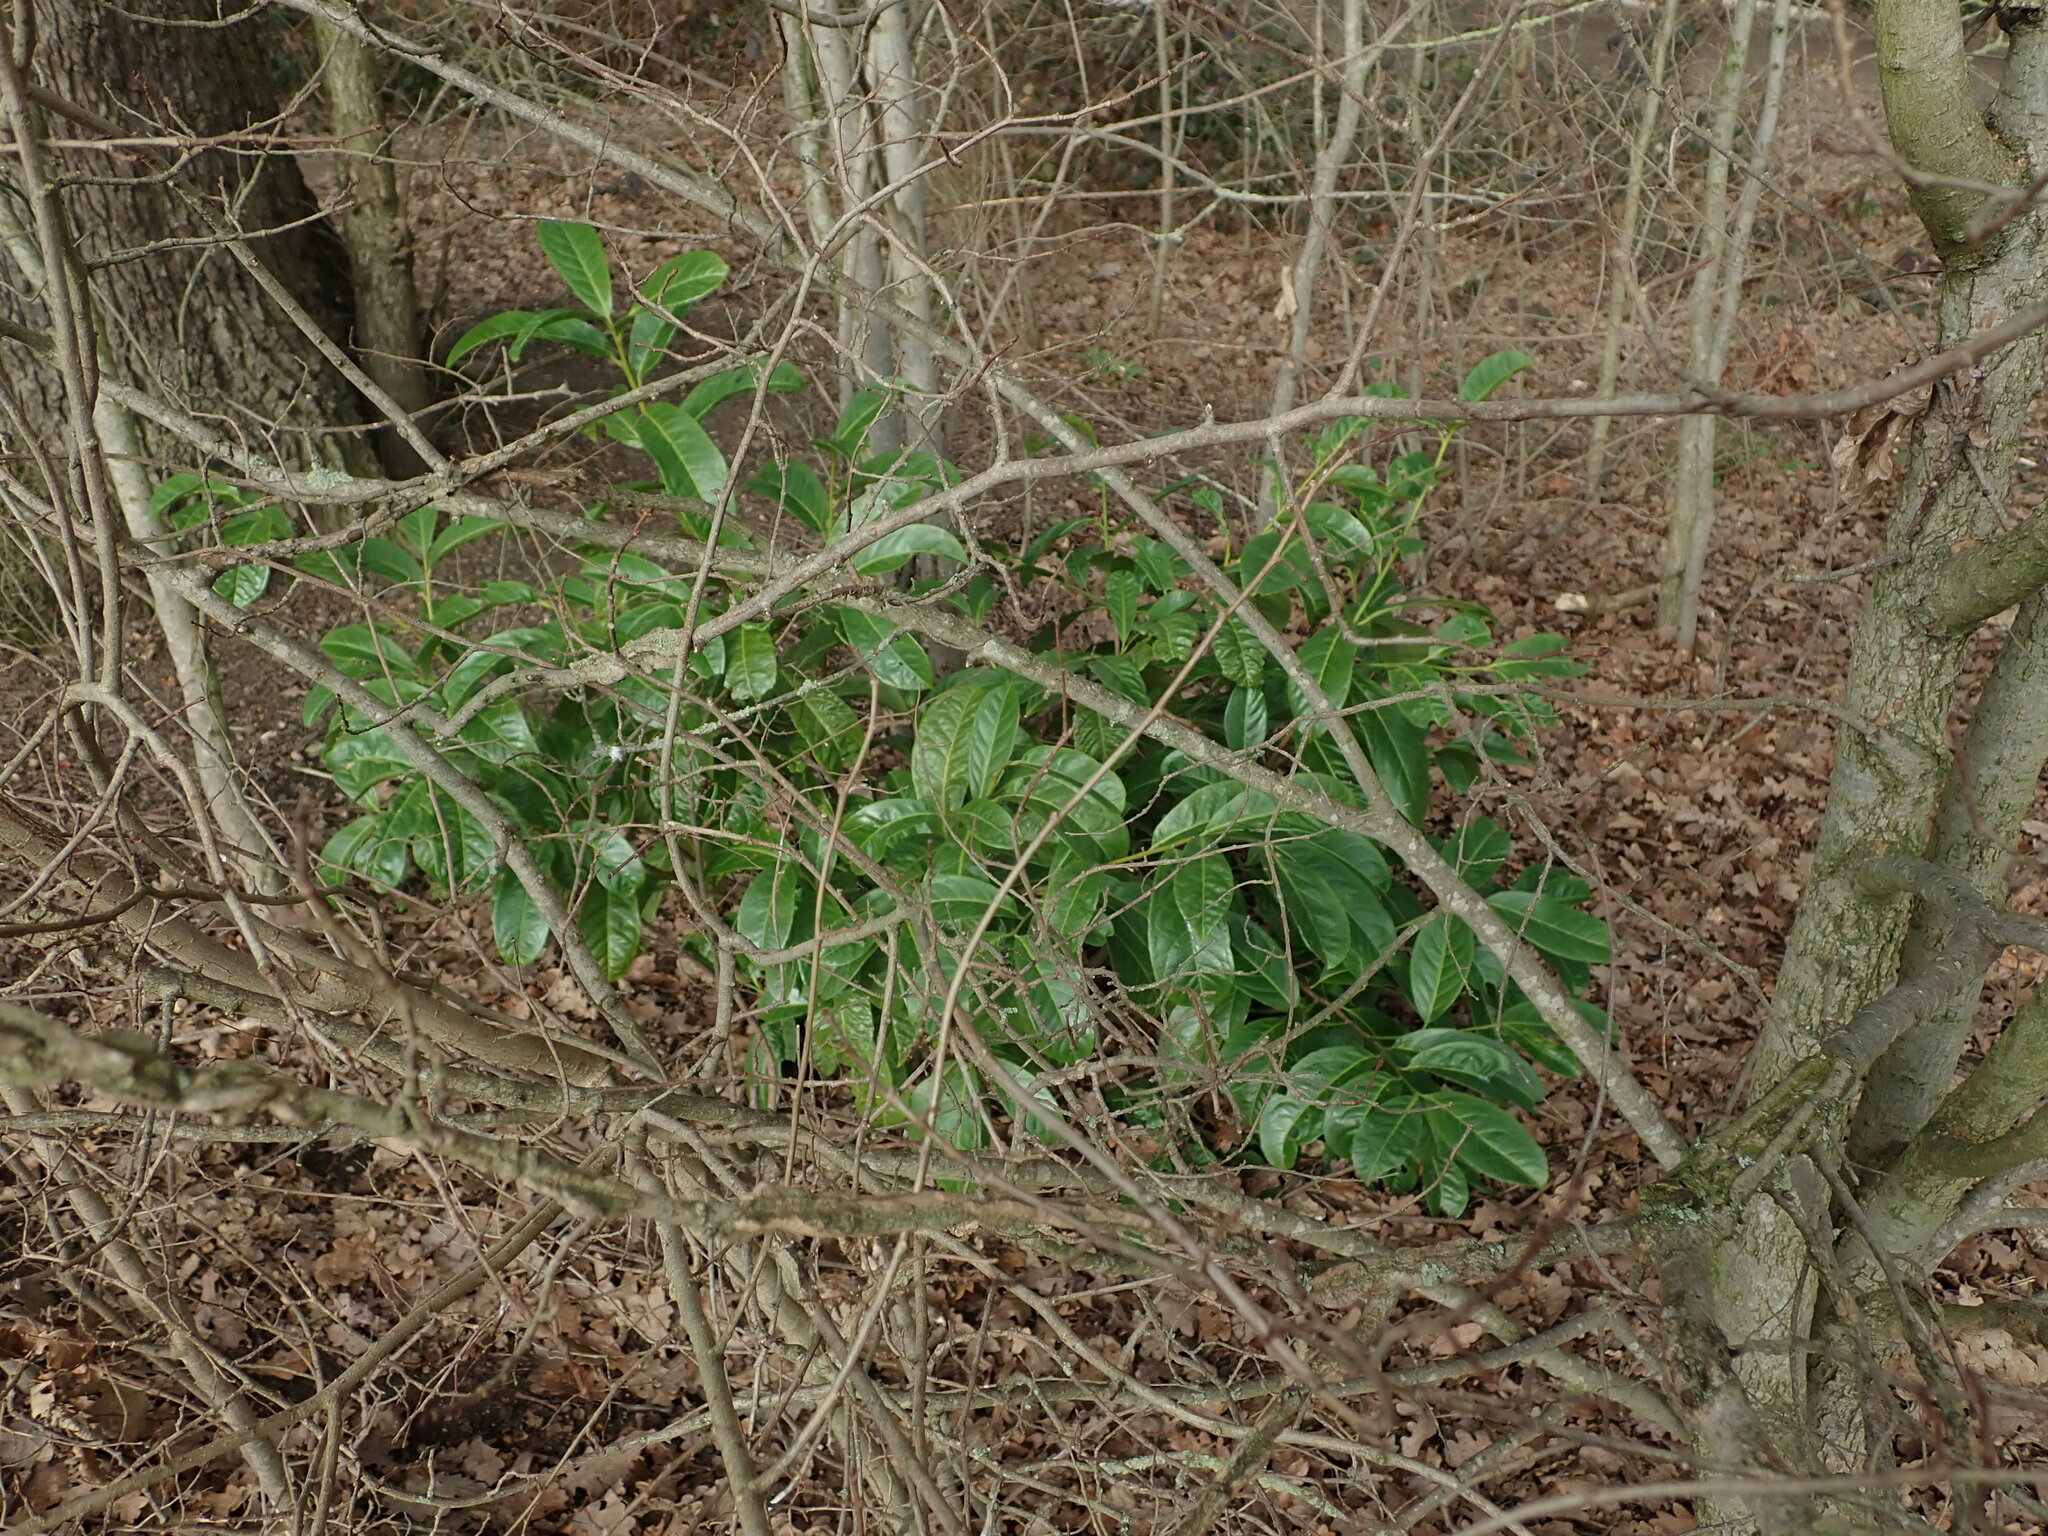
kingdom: Plantae
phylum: Tracheophyta
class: Magnoliopsida
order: Rosales
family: Rosaceae
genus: Prunus
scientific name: Prunus laurocerasus
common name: Cherry laurel
